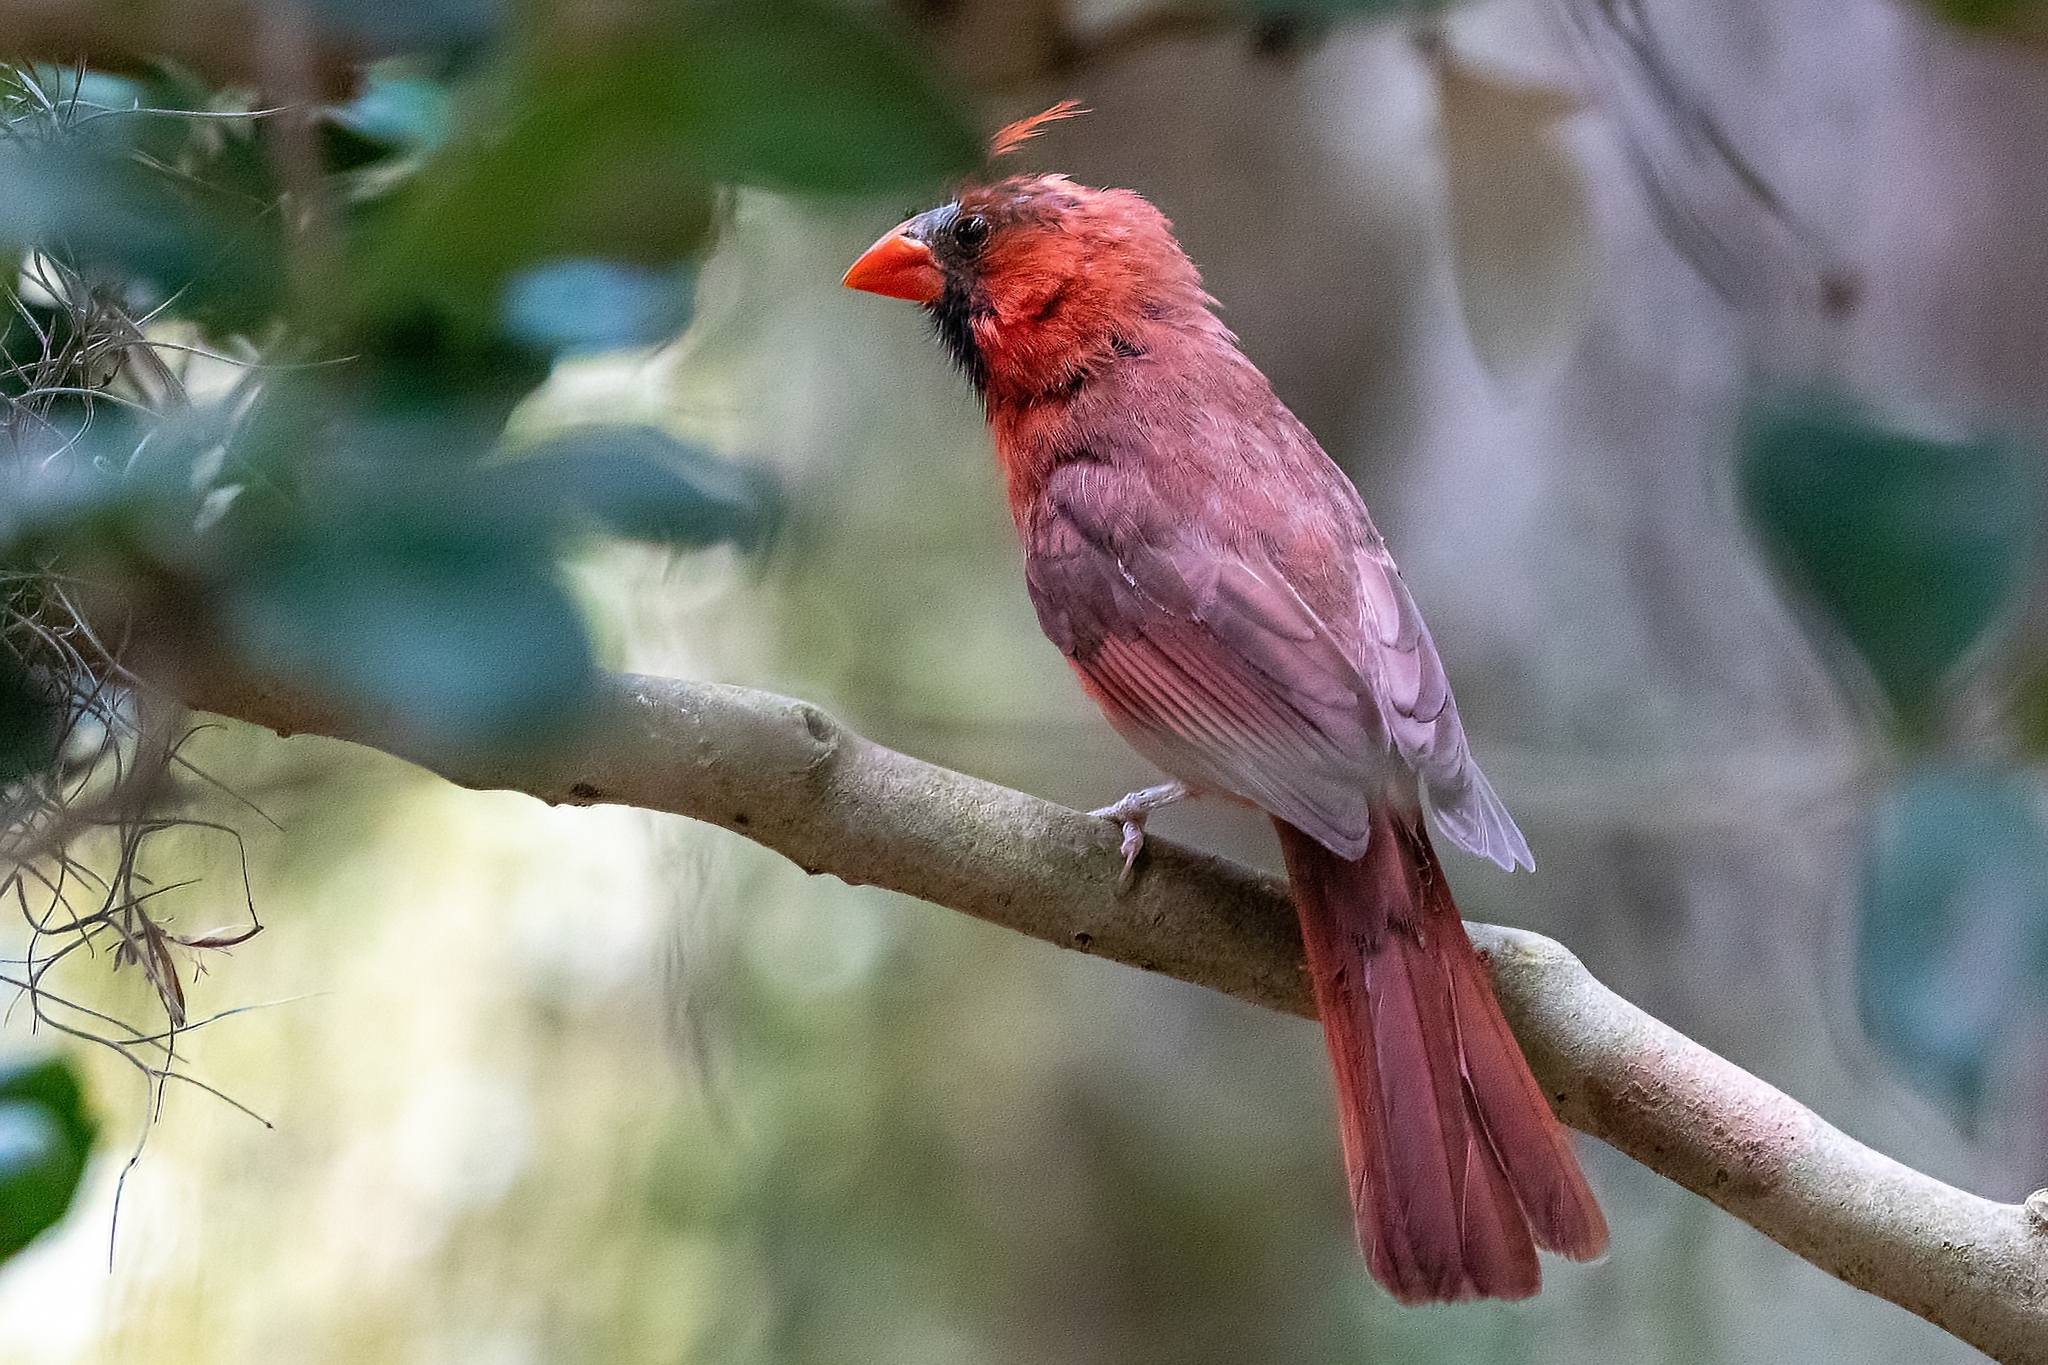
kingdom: Animalia
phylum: Chordata
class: Aves
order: Passeriformes
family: Cardinalidae
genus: Cardinalis
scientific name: Cardinalis cardinalis
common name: Northern cardinal
